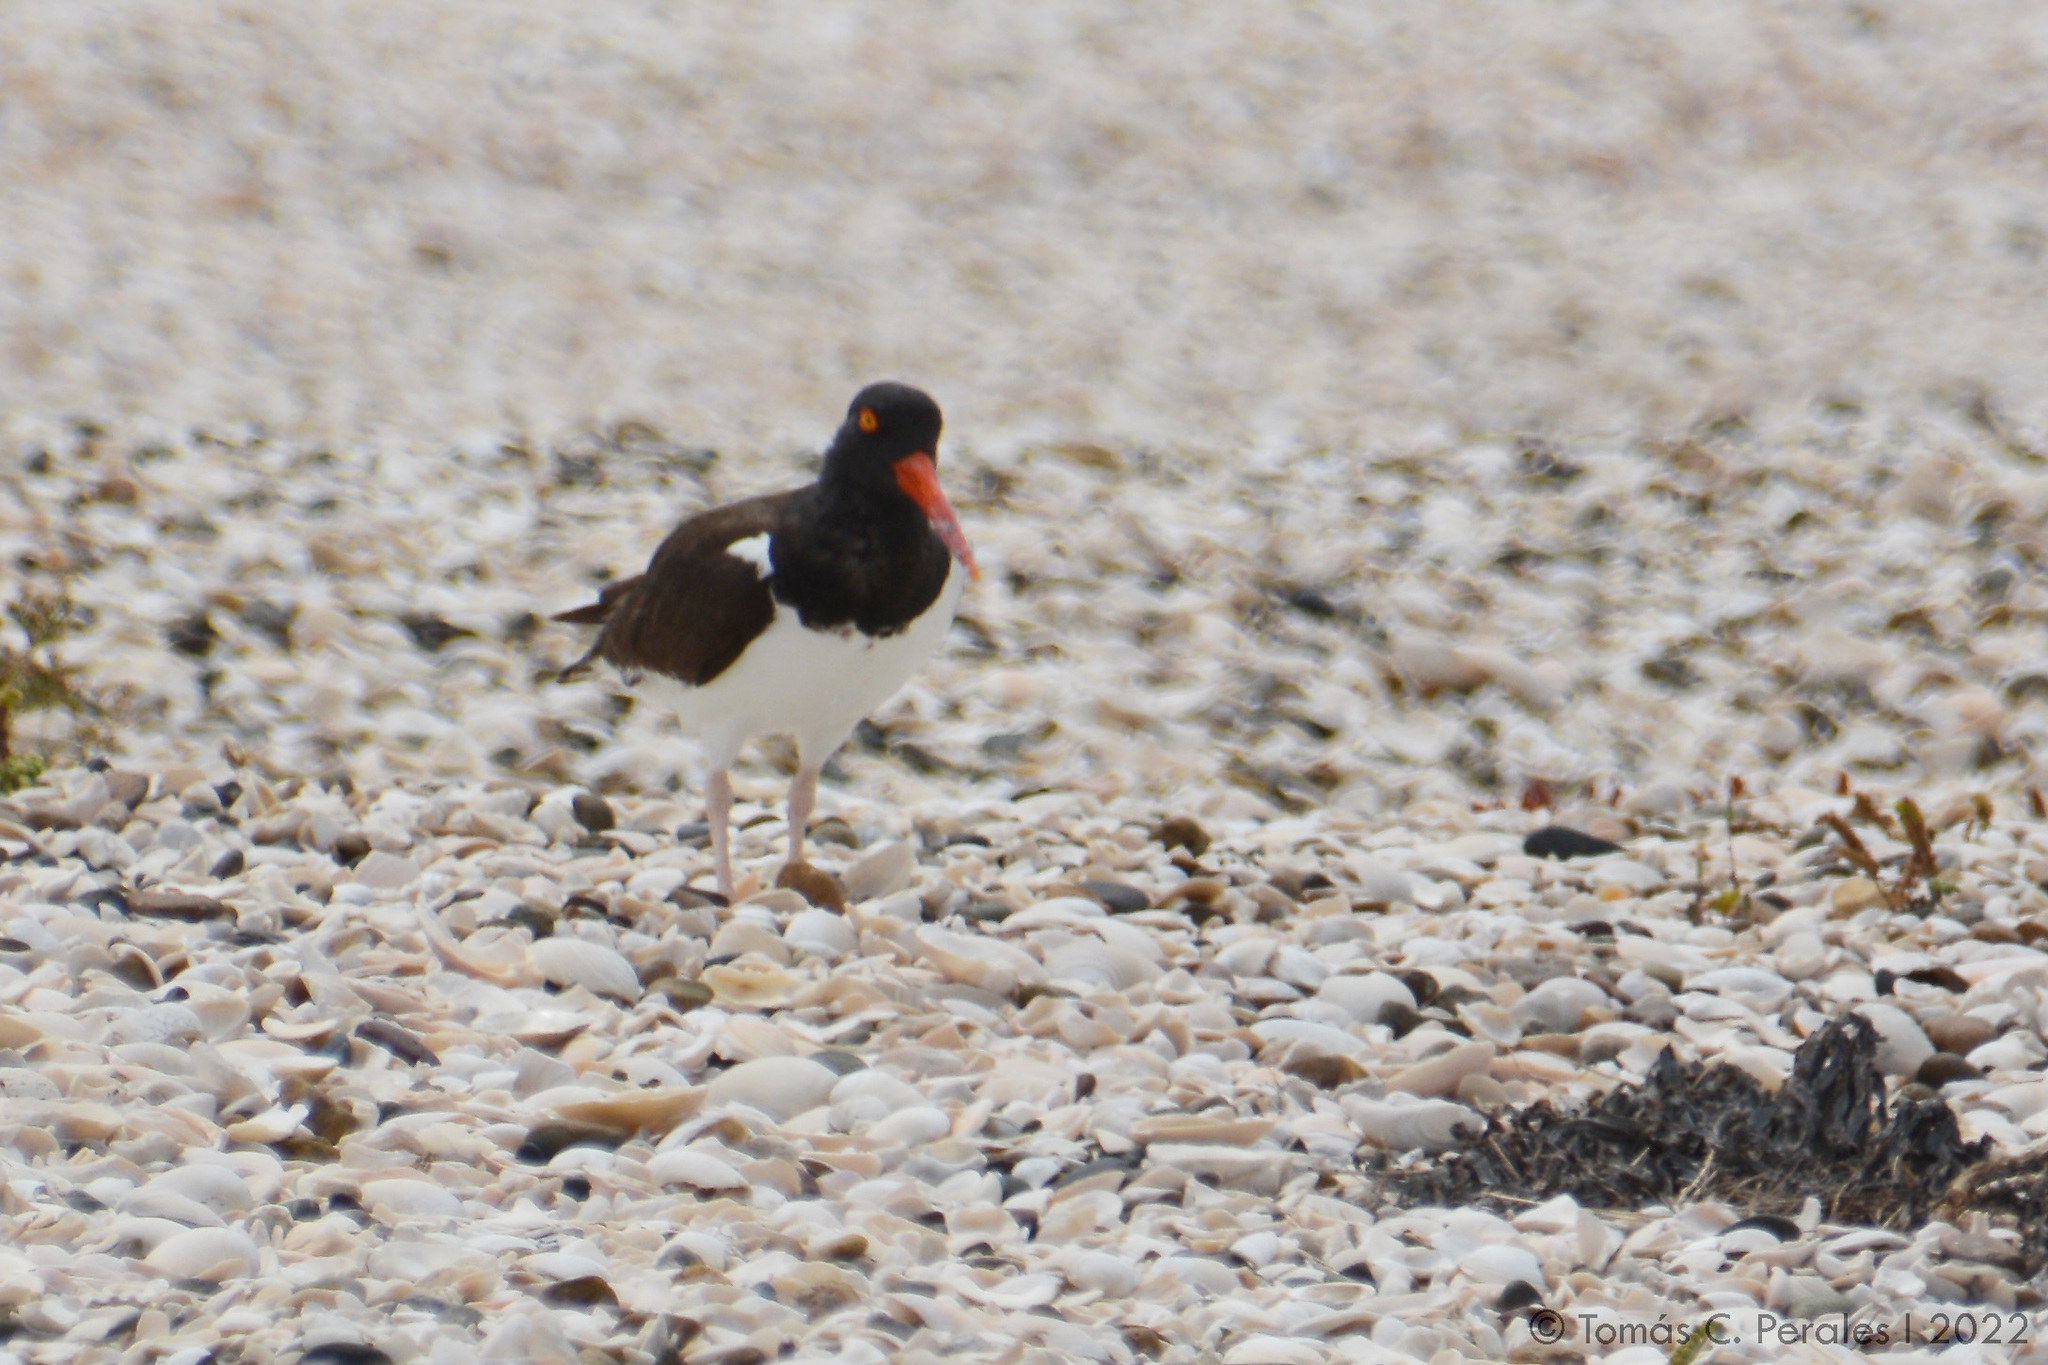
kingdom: Animalia
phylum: Chordata
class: Aves
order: Charadriiformes
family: Haematopodidae
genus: Haematopus
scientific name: Haematopus palliatus
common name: American oystercatcher
